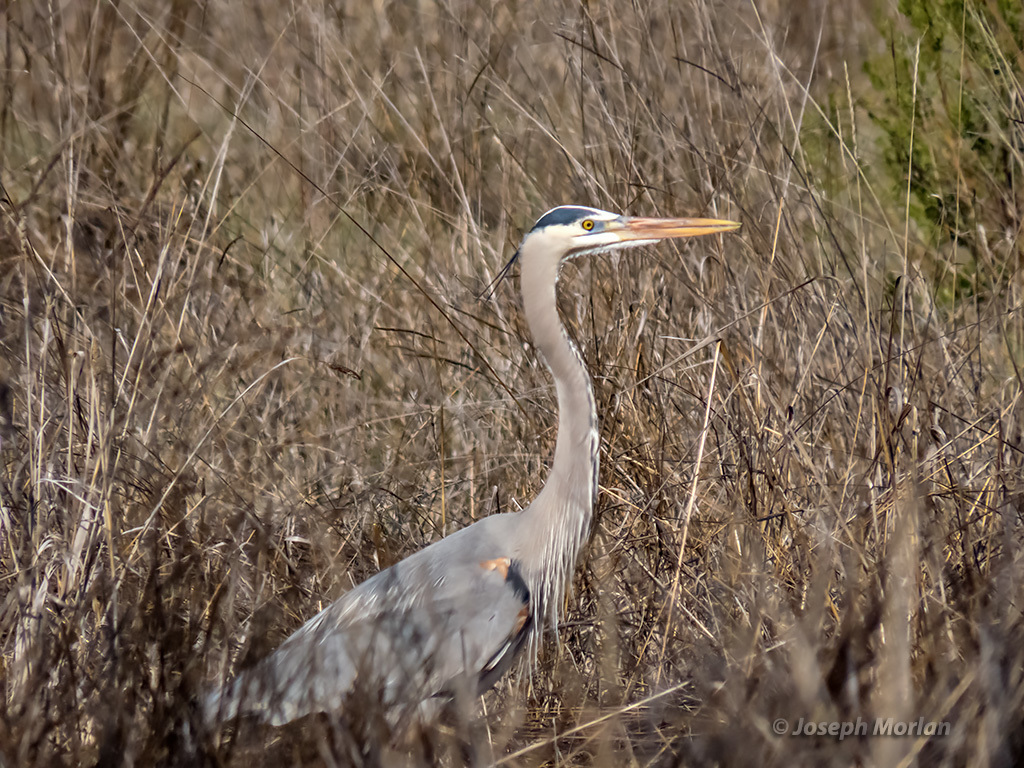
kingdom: Animalia
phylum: Chordata
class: Aves
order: Pelecaniformes
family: Ardeidae
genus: Ardea
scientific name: Ardea herodias
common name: Great blue heron
